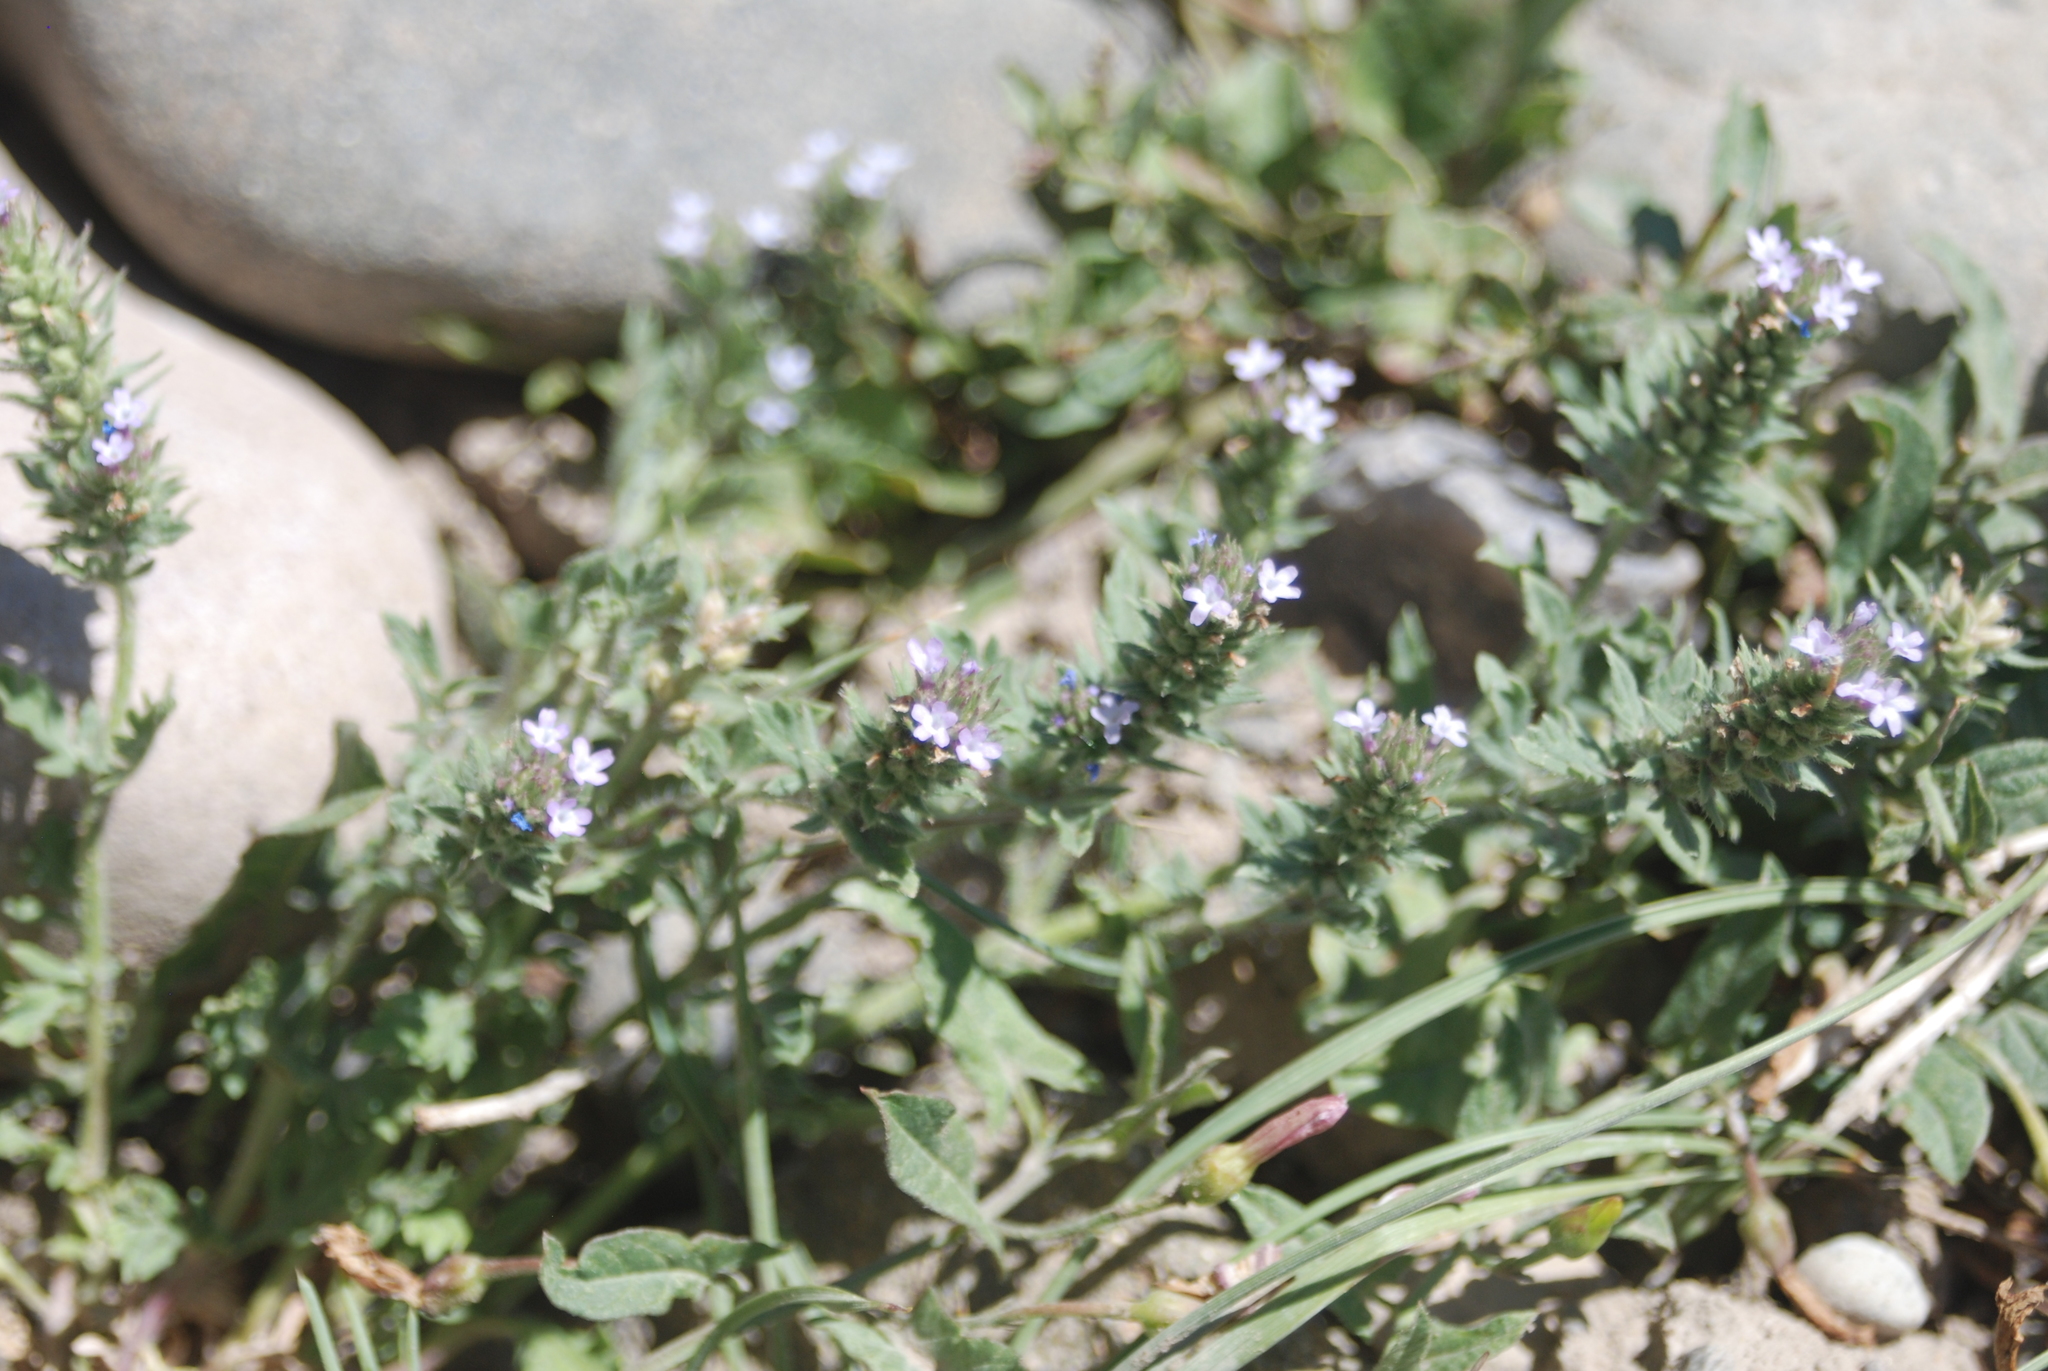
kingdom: Plantae
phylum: Tracheophyta
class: Magnoliopsida
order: Lamiales
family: Verbenaceae
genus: Verbena
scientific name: Verbena bracteata
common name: Bracted vervain
